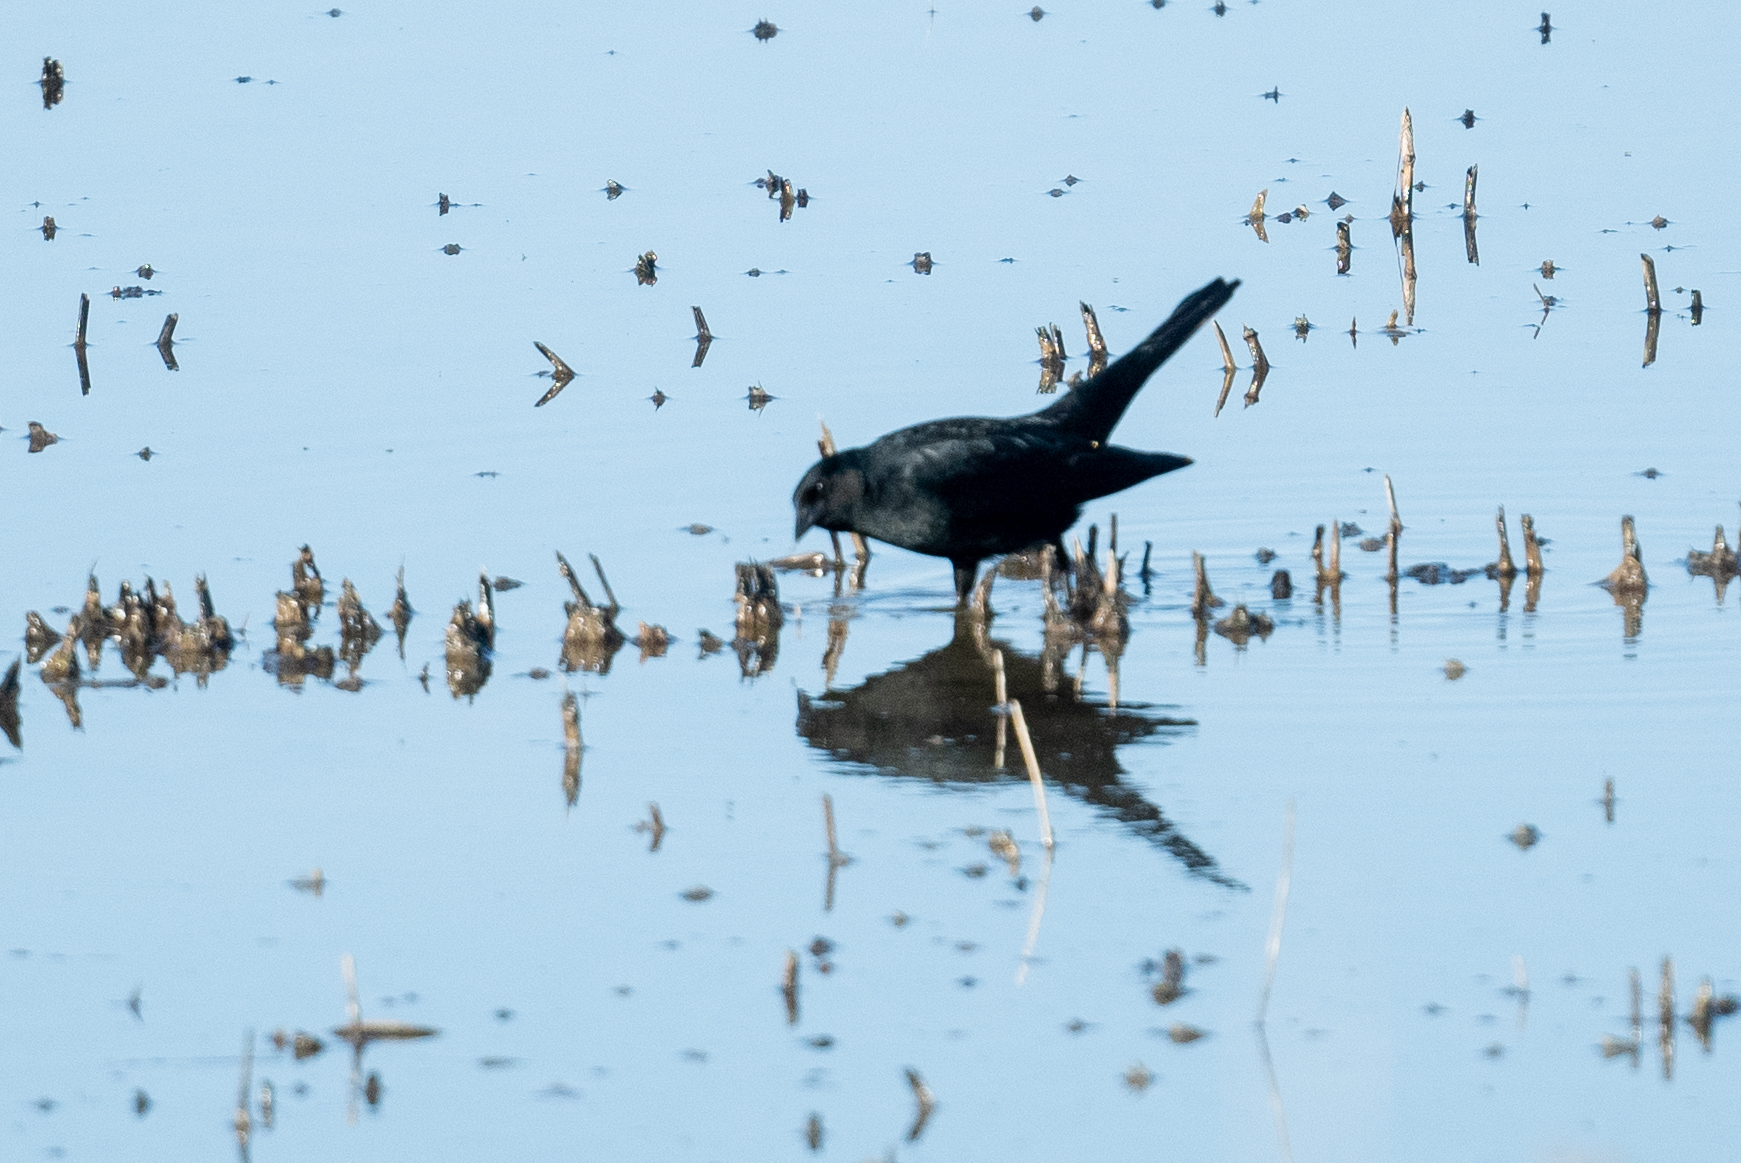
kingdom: Animalia
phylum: Chordata
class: Aves
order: Passeriformes
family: Icteridae
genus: Euphagus
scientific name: Euphagus cyanocephalus
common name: Brewer's blackbird
